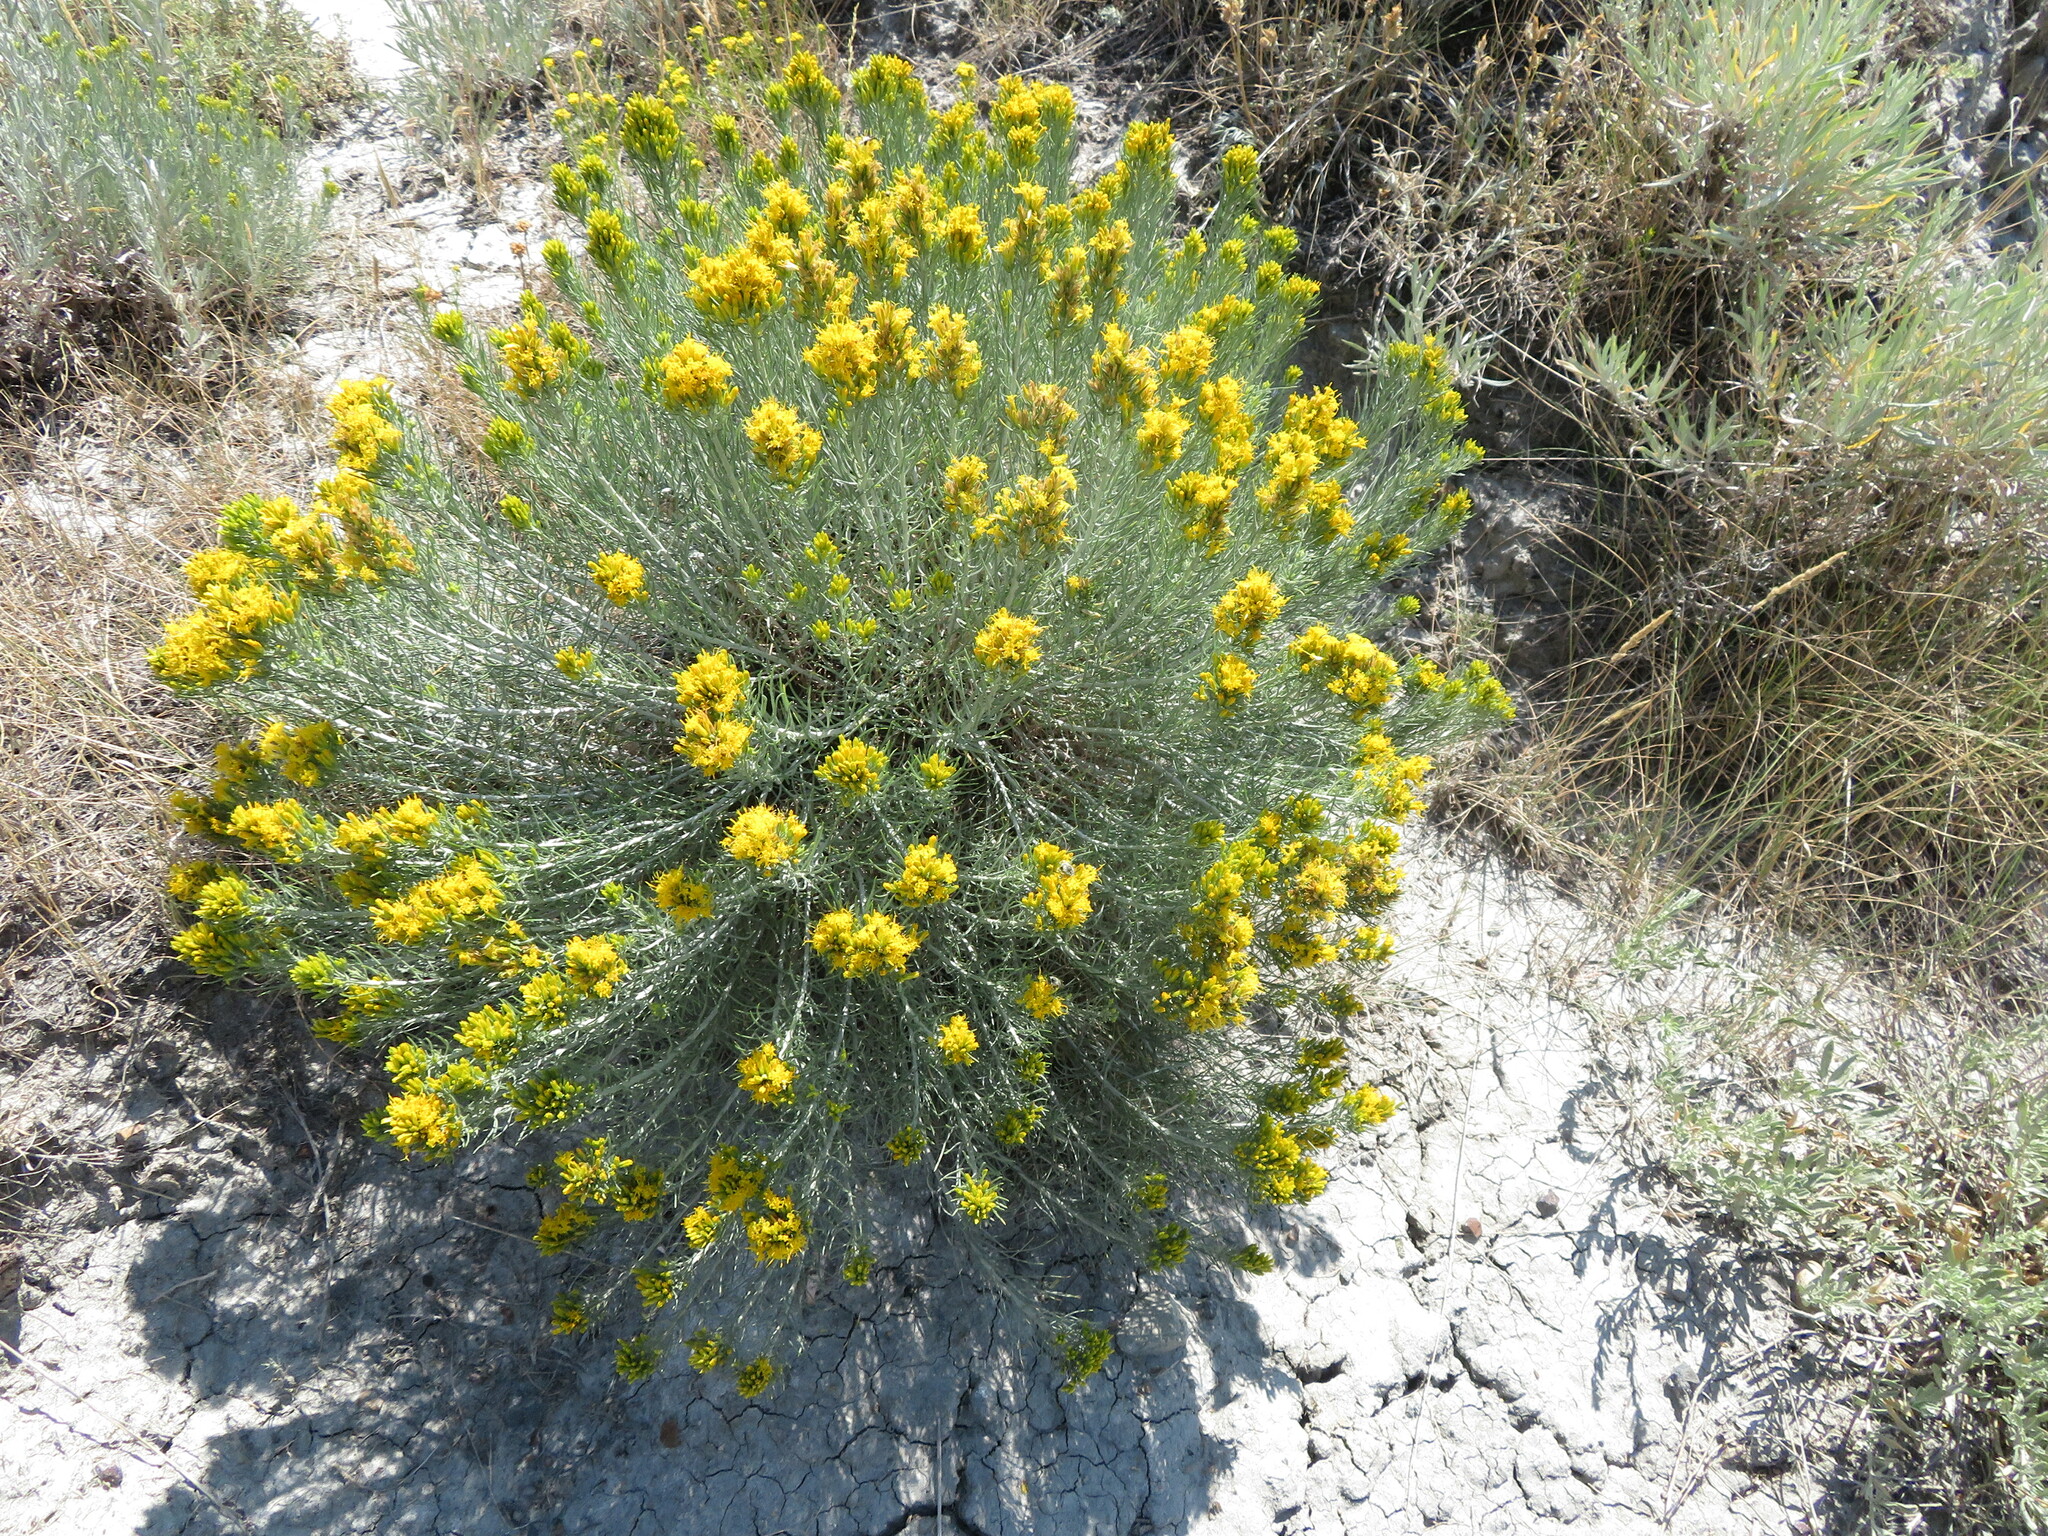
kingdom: Plantae
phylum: Tracheophyta
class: Magnoliopsida
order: Asterales
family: Asteraceae
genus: Ericameria
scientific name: Ericameria nauseosa
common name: Rubber rabbitbrush
